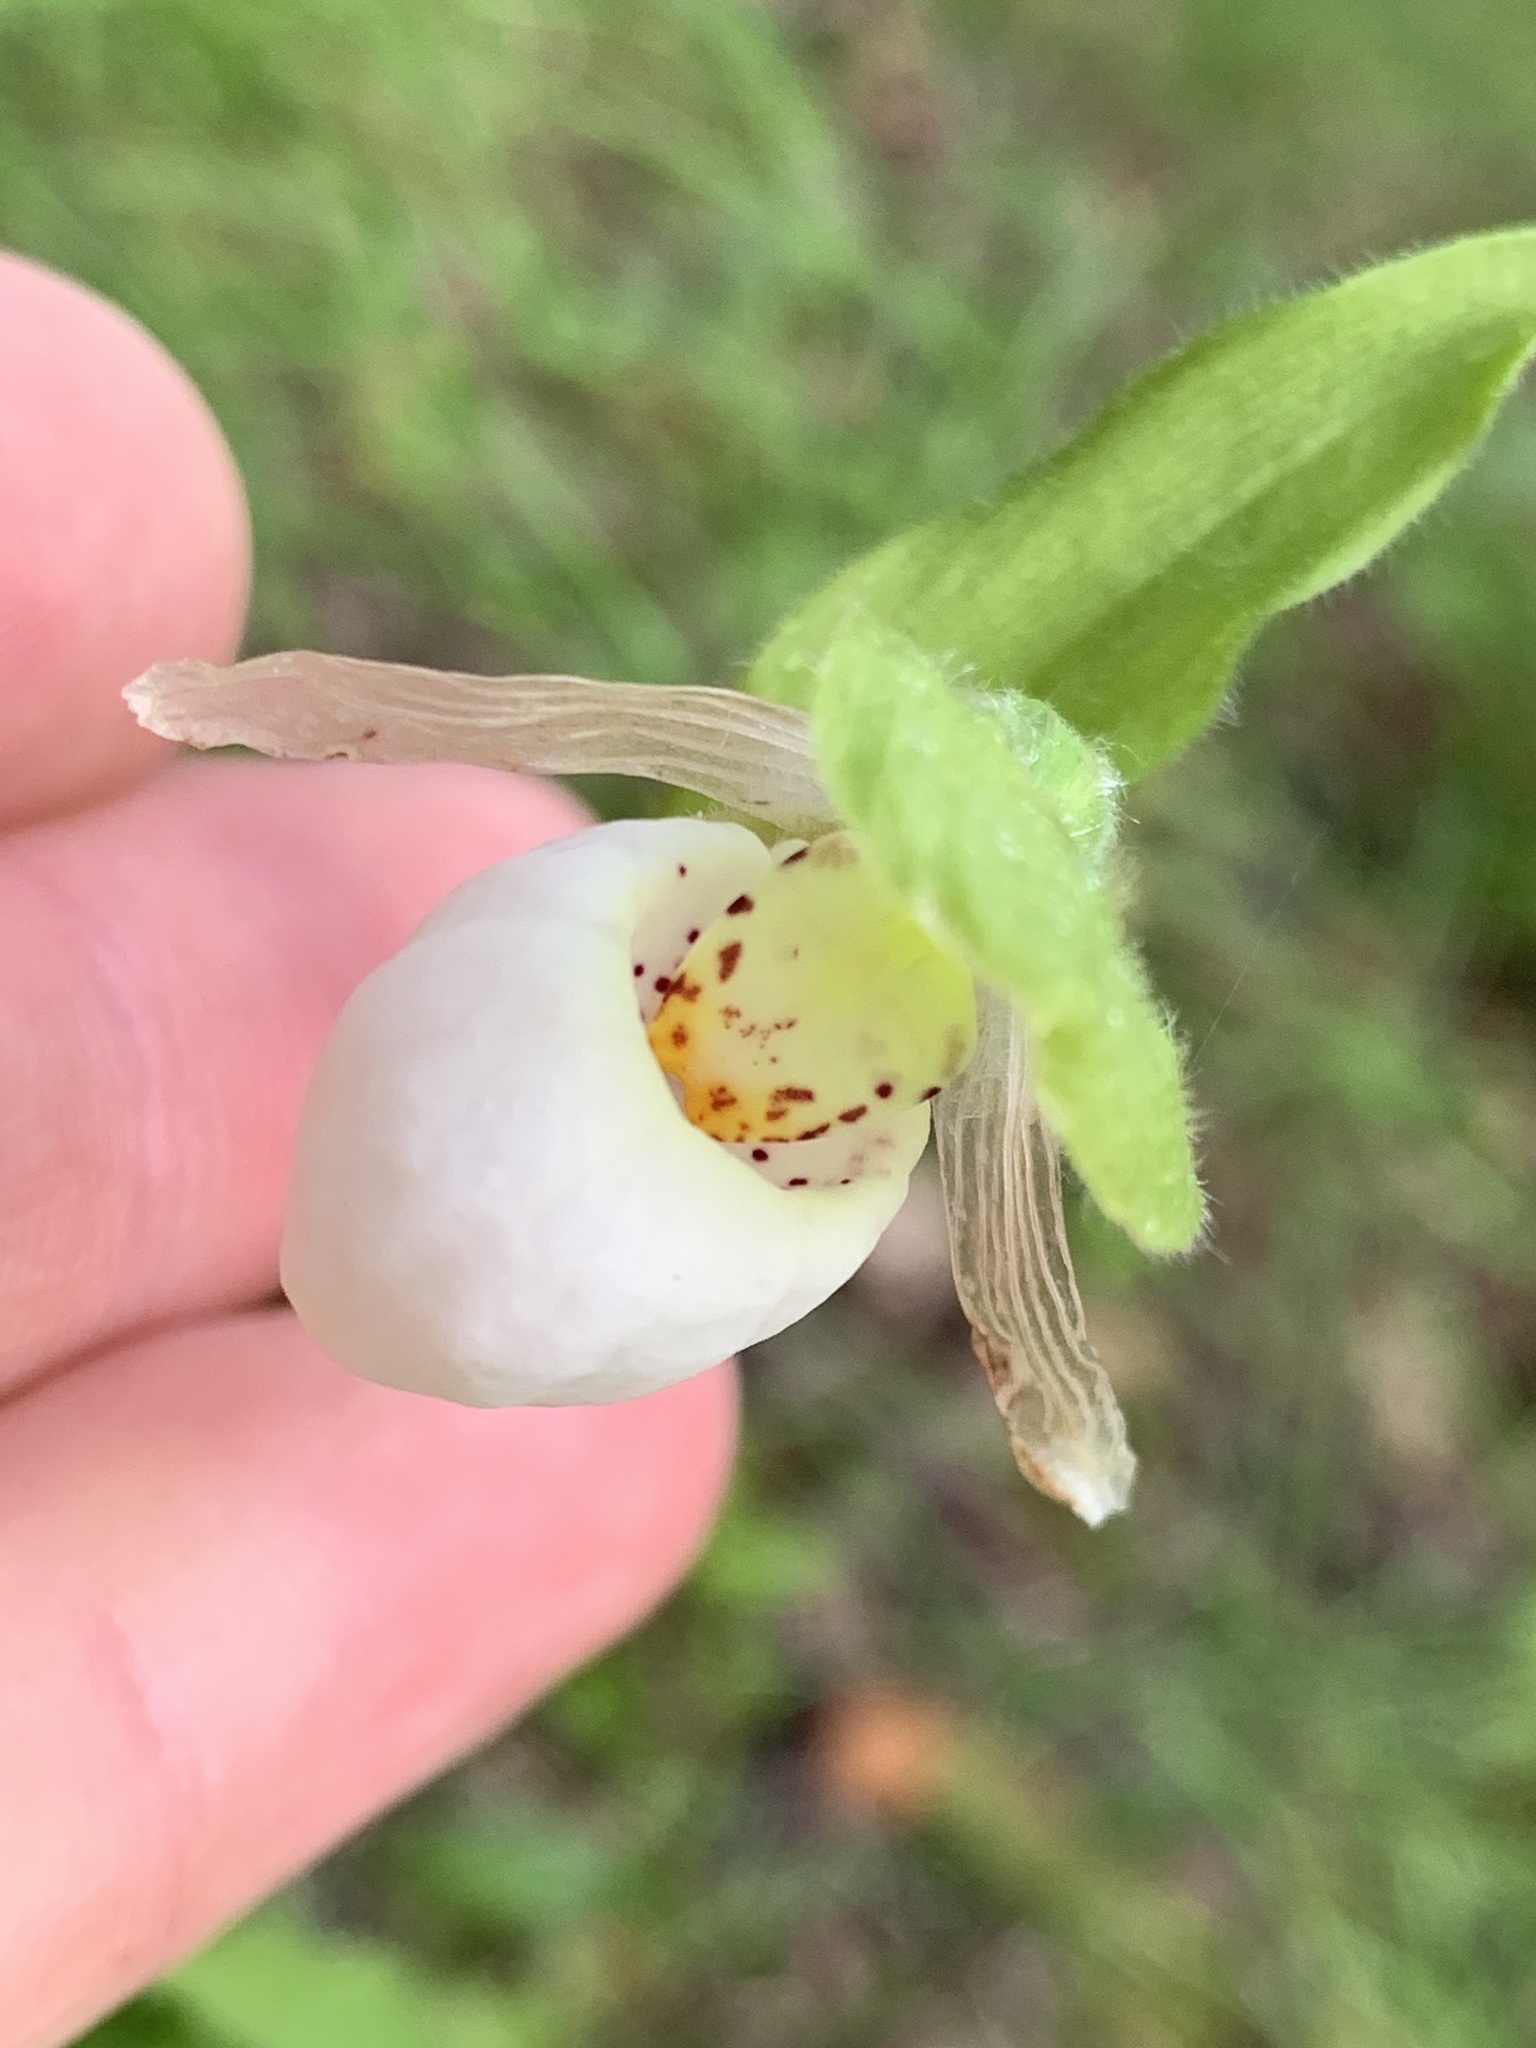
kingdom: Plantae
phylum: Tracheophyta
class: Liliopsida
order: Asparagales
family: Orchidaceae
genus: Cypripedium
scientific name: Cypripedium passerinum
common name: Sparrow's-egg lady's-slipper
